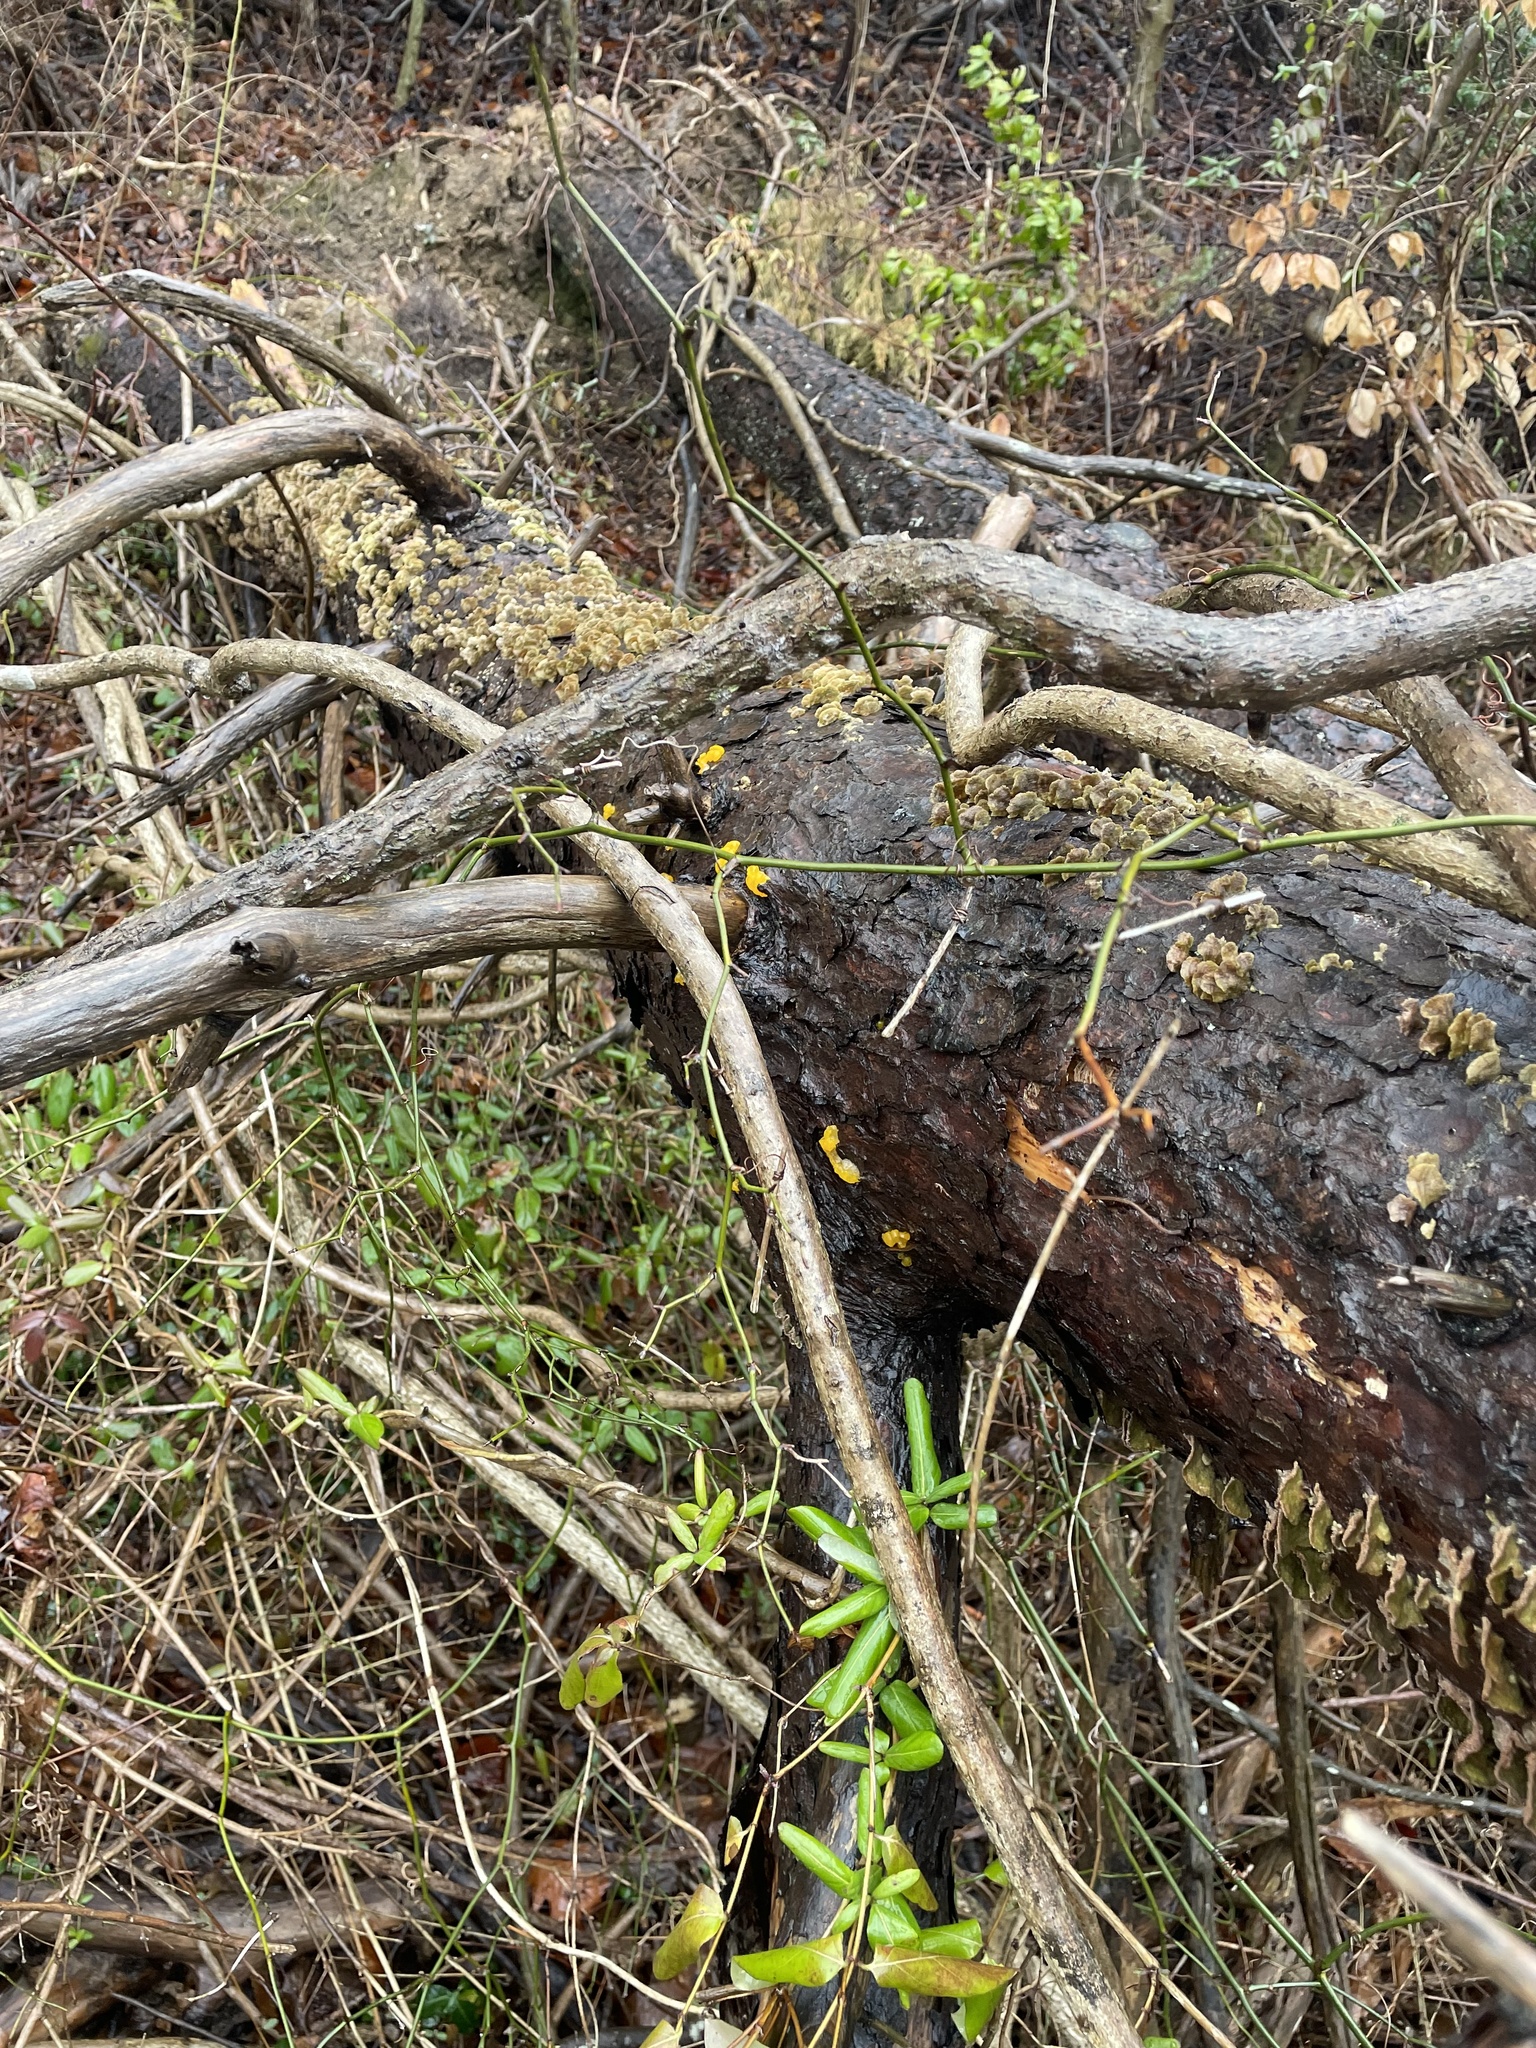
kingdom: Fungi
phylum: Basidiomycota
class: Dacrymycetes
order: Dacrymycetales
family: Dacrymycetaceae
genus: Dacrymyces
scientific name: Dacrymyces chrysospermus
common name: Orange jelly spot
